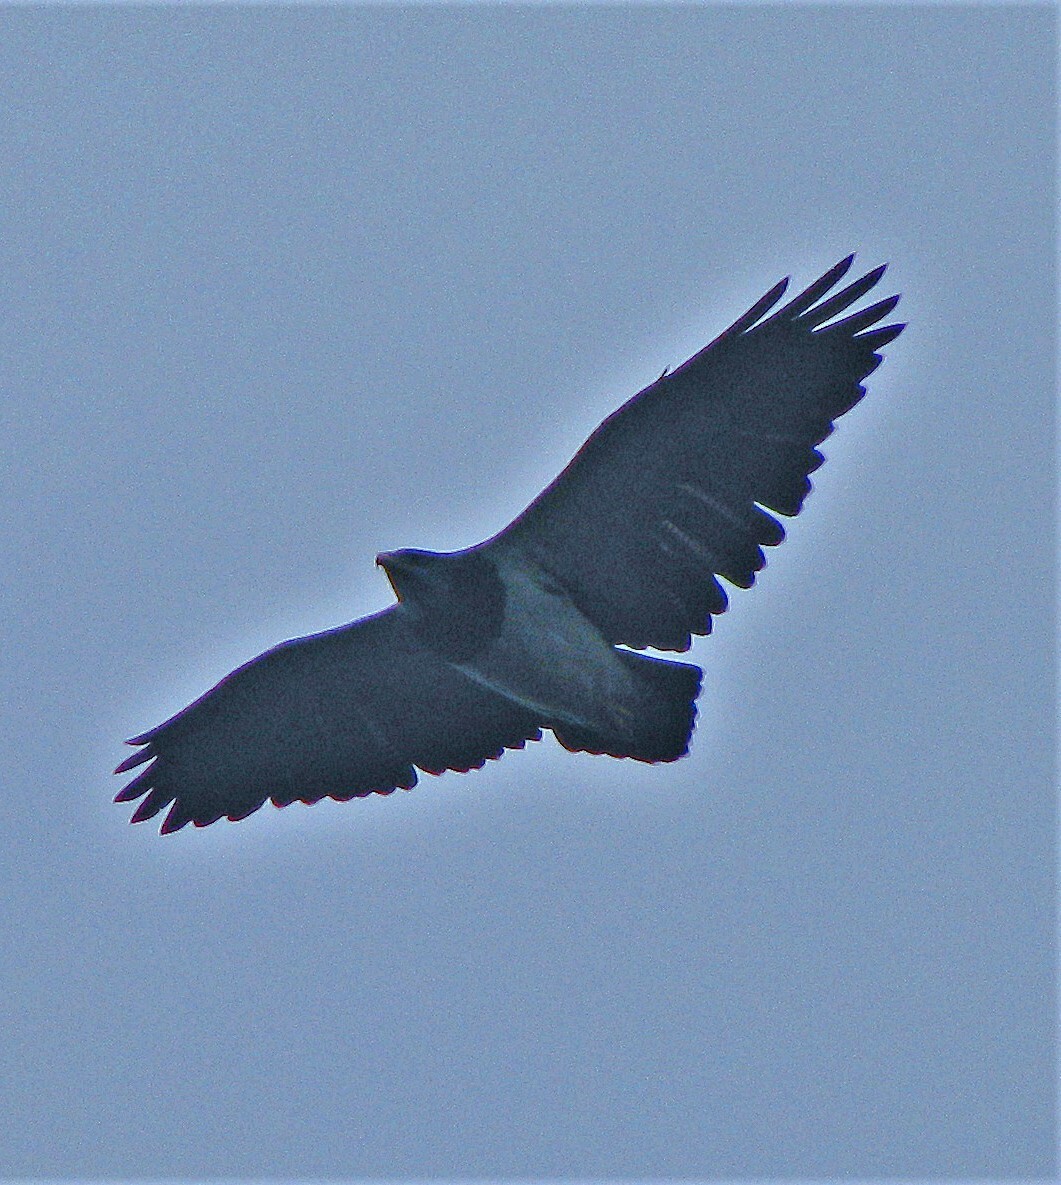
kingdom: Animalia
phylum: Chordata
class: Aves
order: Accipitriformes
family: Accipitridae
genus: Geranoaetus
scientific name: Geranoaetus melanoleucus
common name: Black-chested buzzard-eagle
